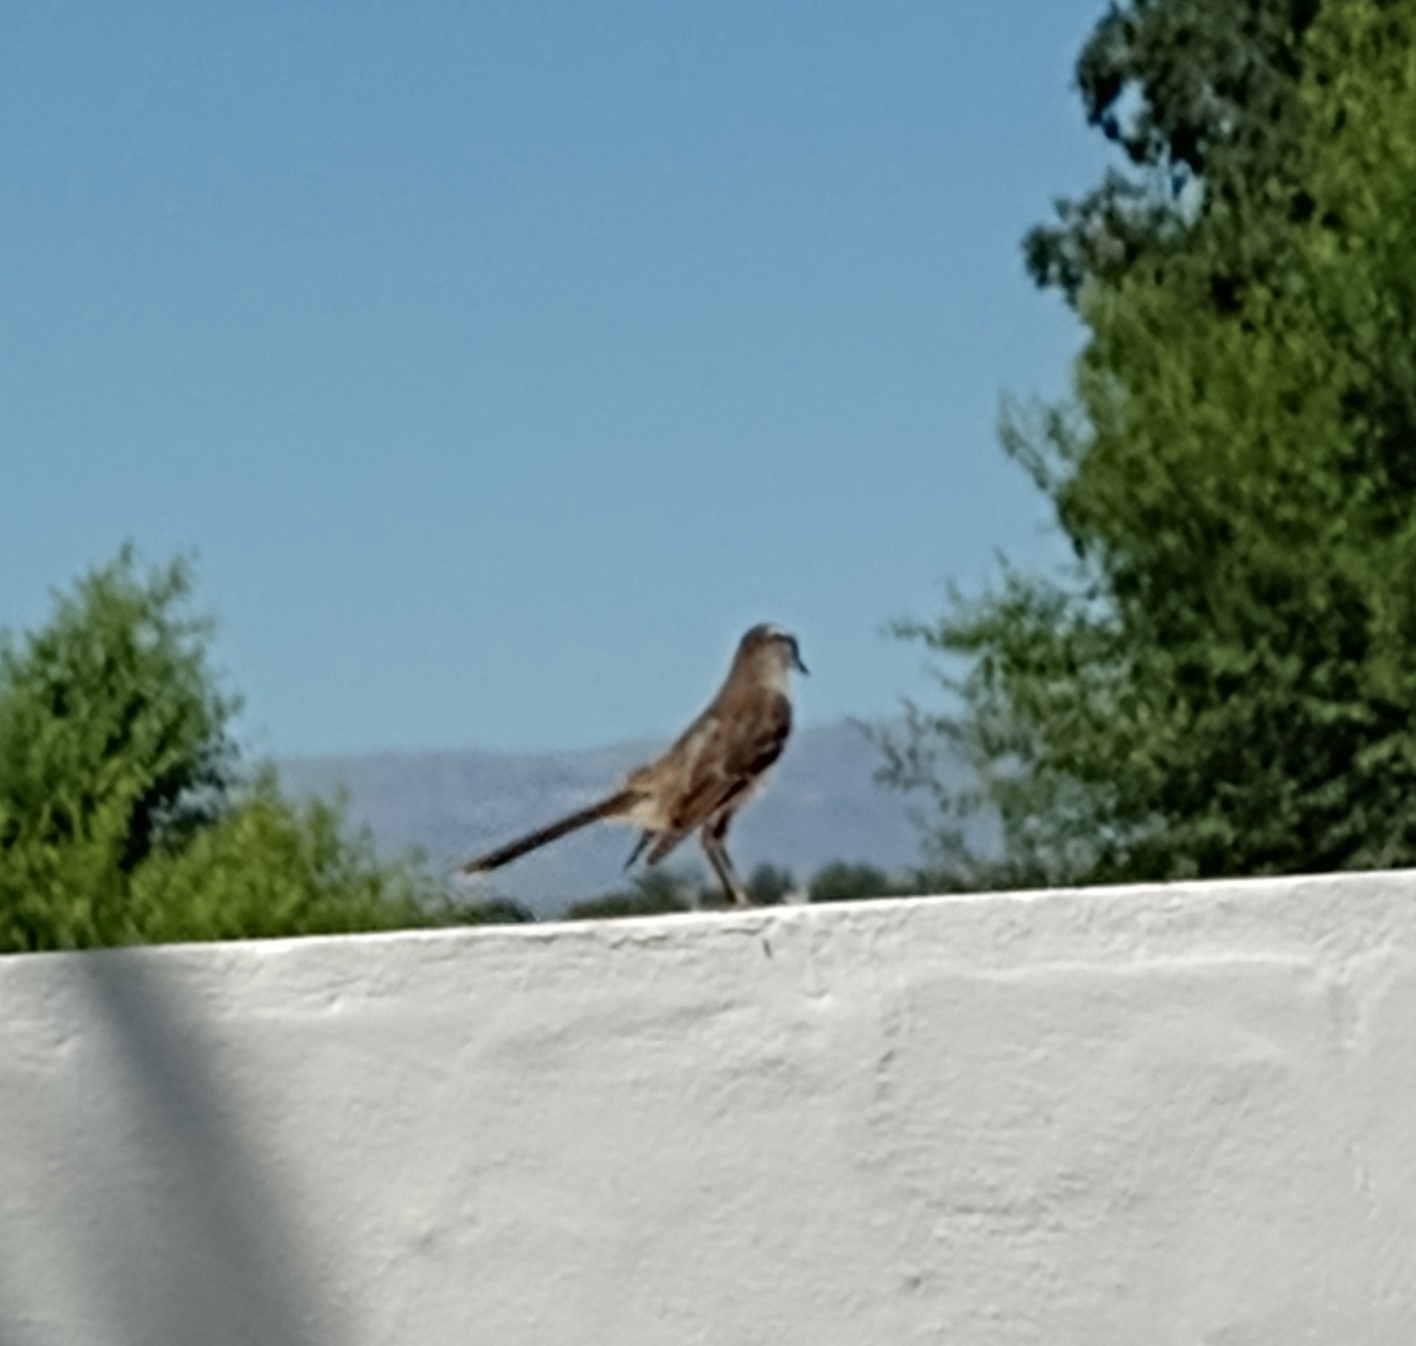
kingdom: Animalia
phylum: Chordata
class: Aves
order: Passeriformes
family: Mimidae
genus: Mimus
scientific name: Mimus saturninus
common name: Chalk-browed mockingbird
